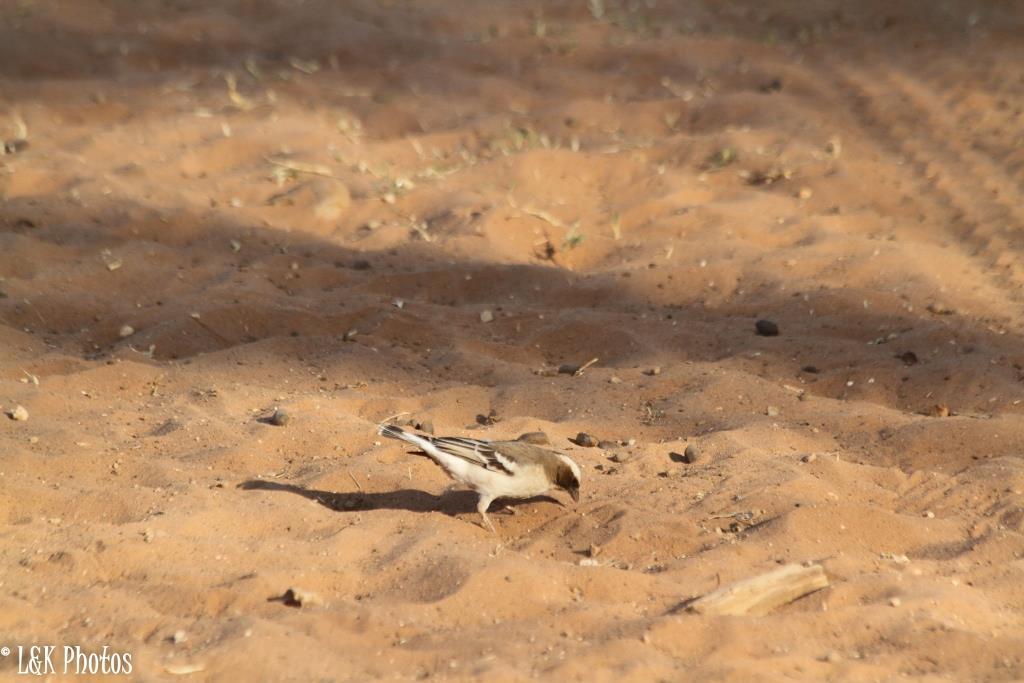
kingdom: Animalia
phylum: Chordata
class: Aves
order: Passeriformes
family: Passeridae
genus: Plocepasser
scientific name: Plocepasser mahali
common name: White-browed sparrow-weaver
